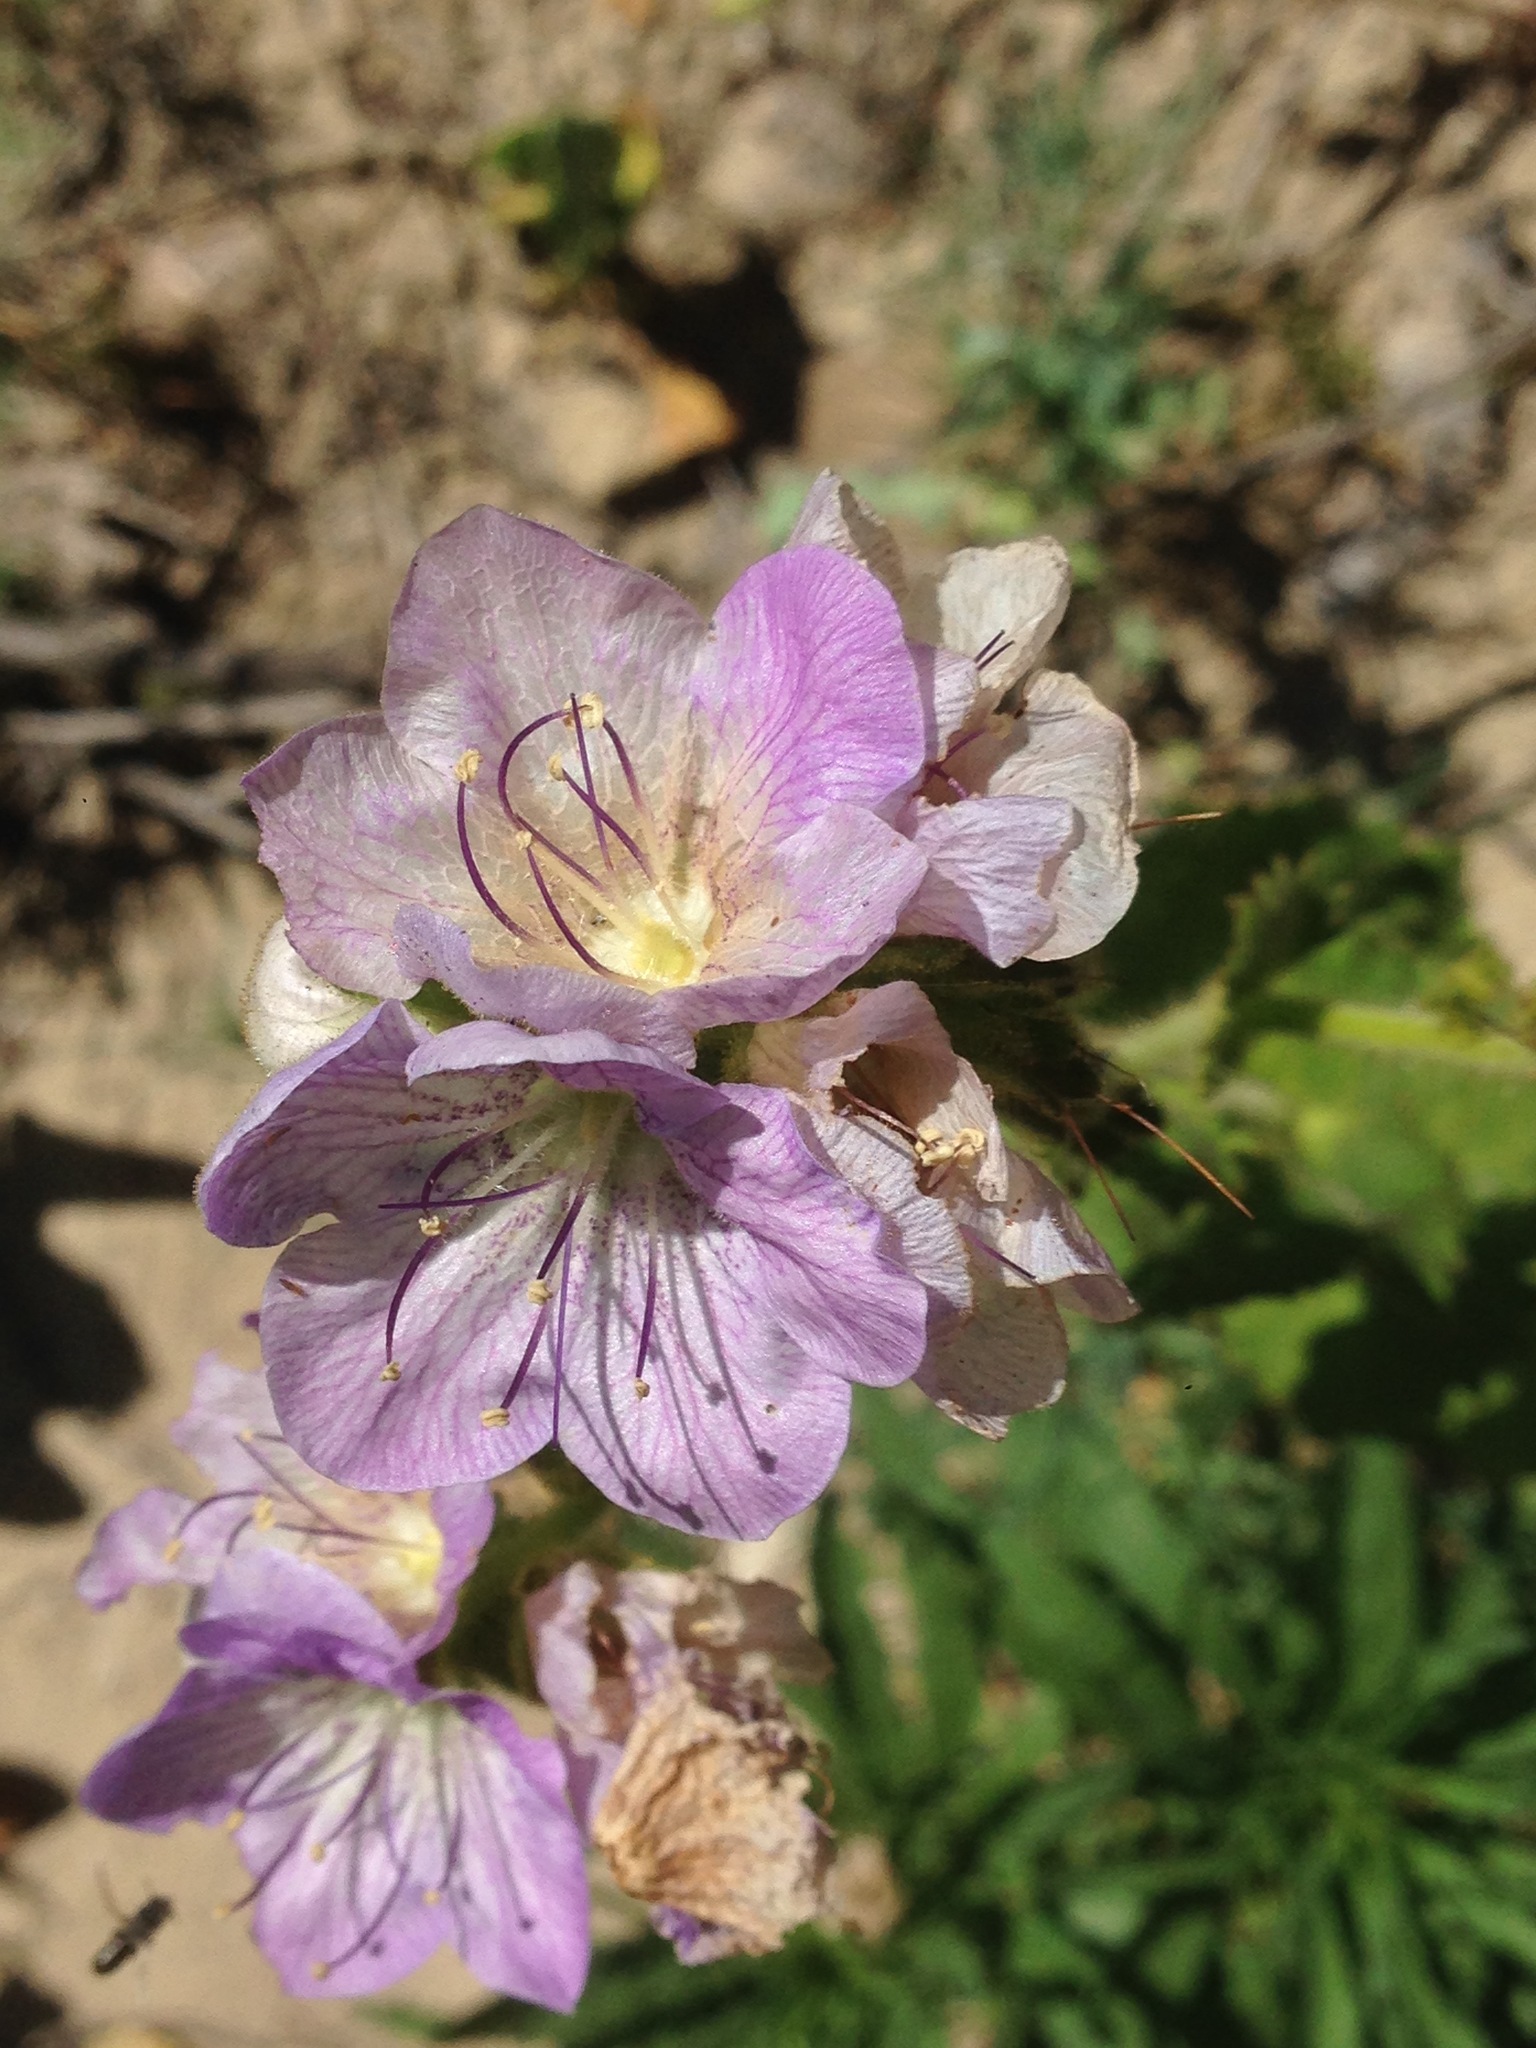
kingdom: Plantae
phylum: Tracheophyta
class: Magnoliopsida
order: Boraginales
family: Hydrophyllaceae
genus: Phacelia
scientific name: Phacelia grandiflora
